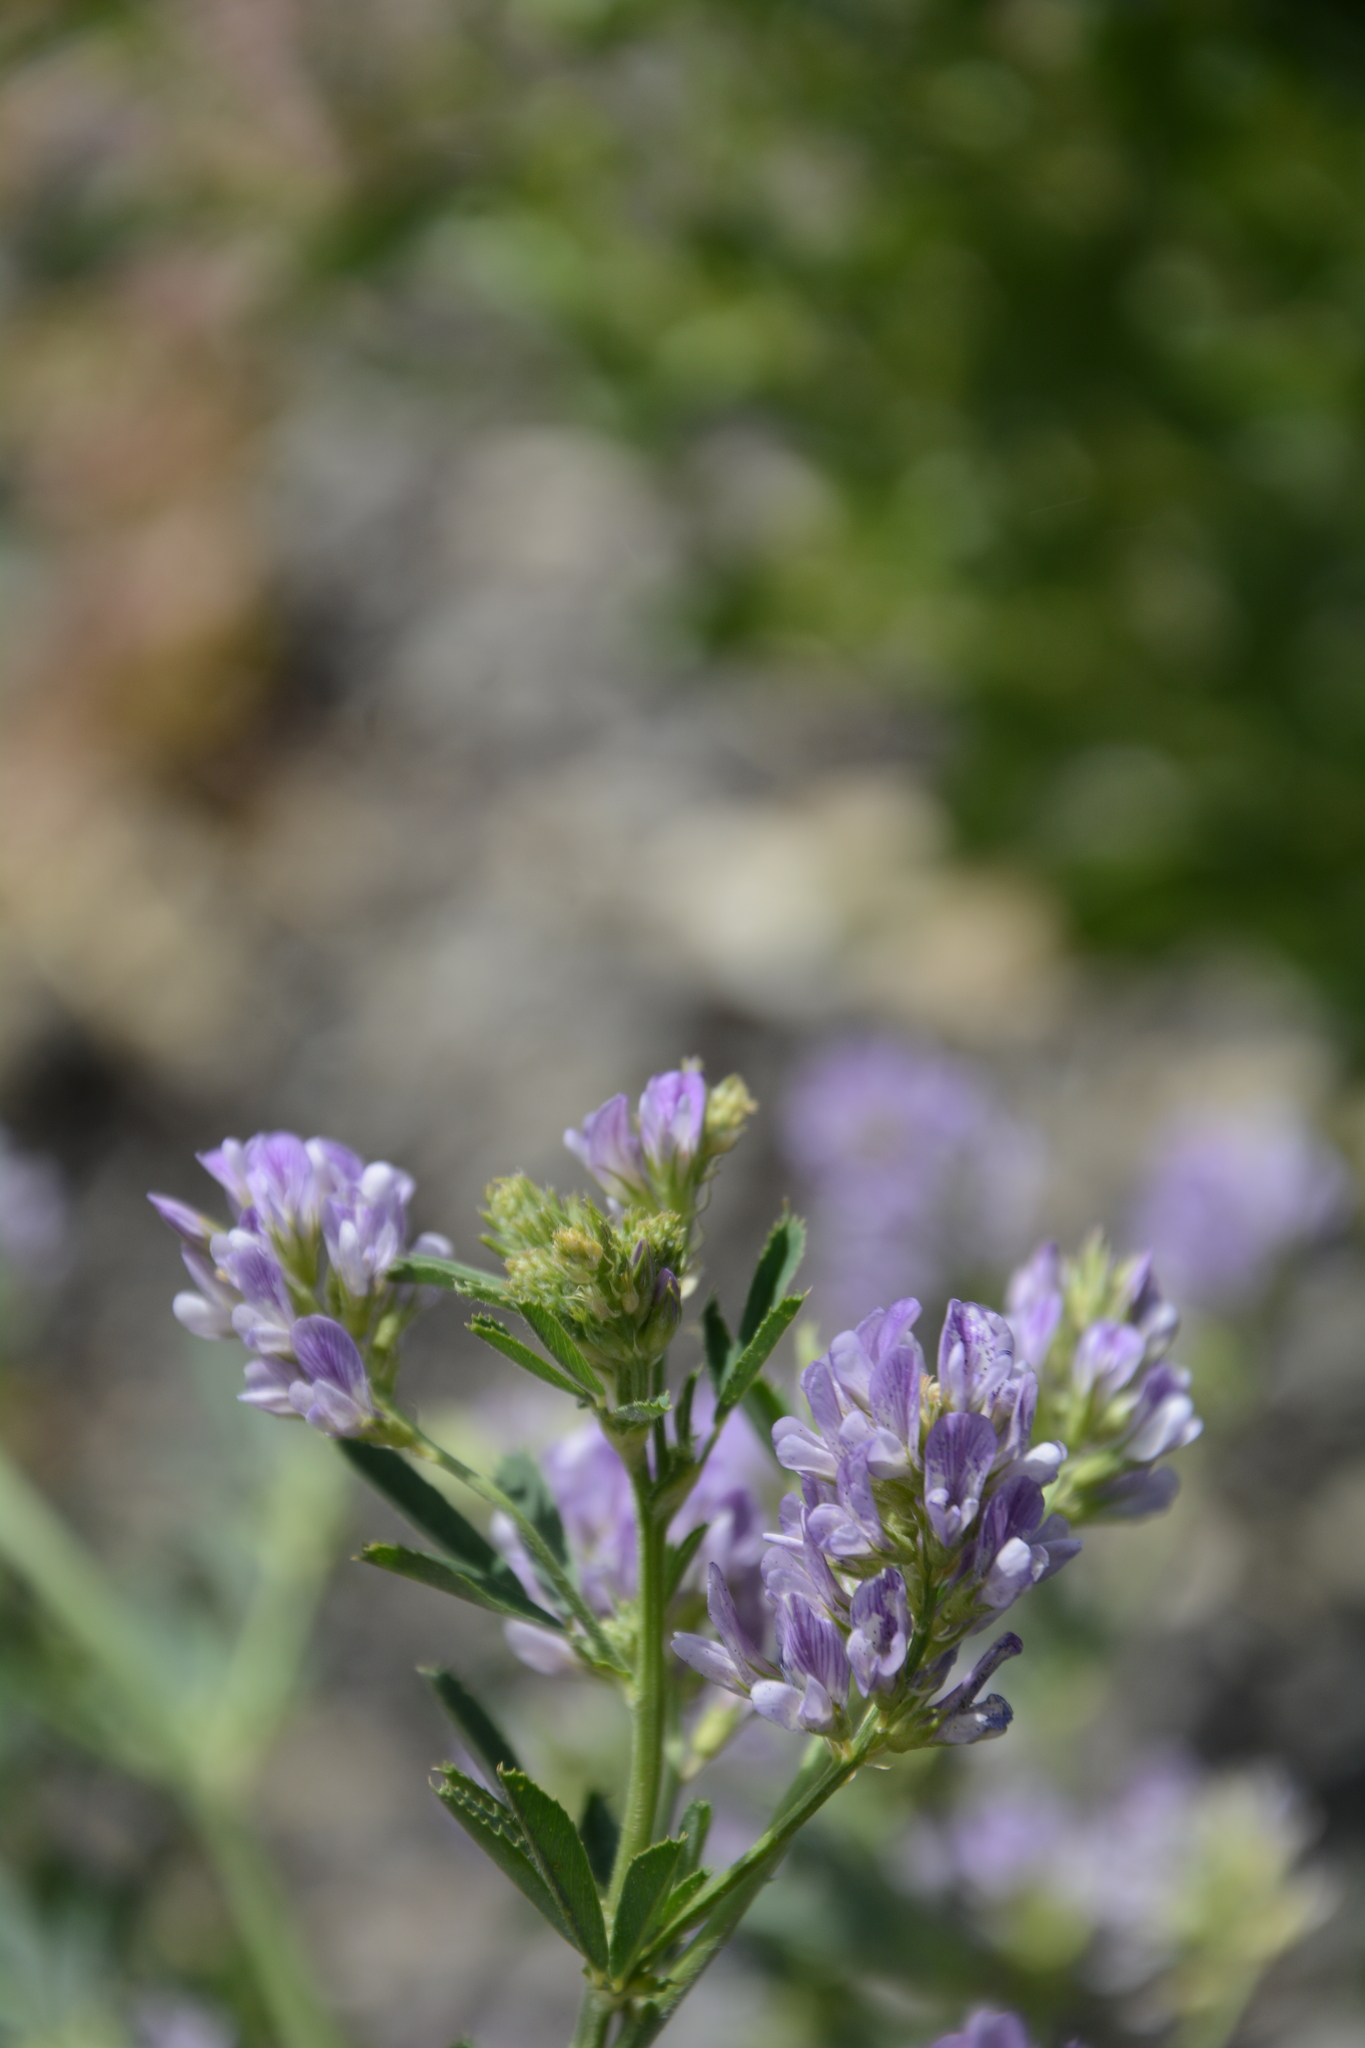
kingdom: Plantae
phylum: Tracheophyta
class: Magnoliopsida
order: Fabales
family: Fabaceae
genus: Medicago
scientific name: Medicago sativa
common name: Alfalfa
